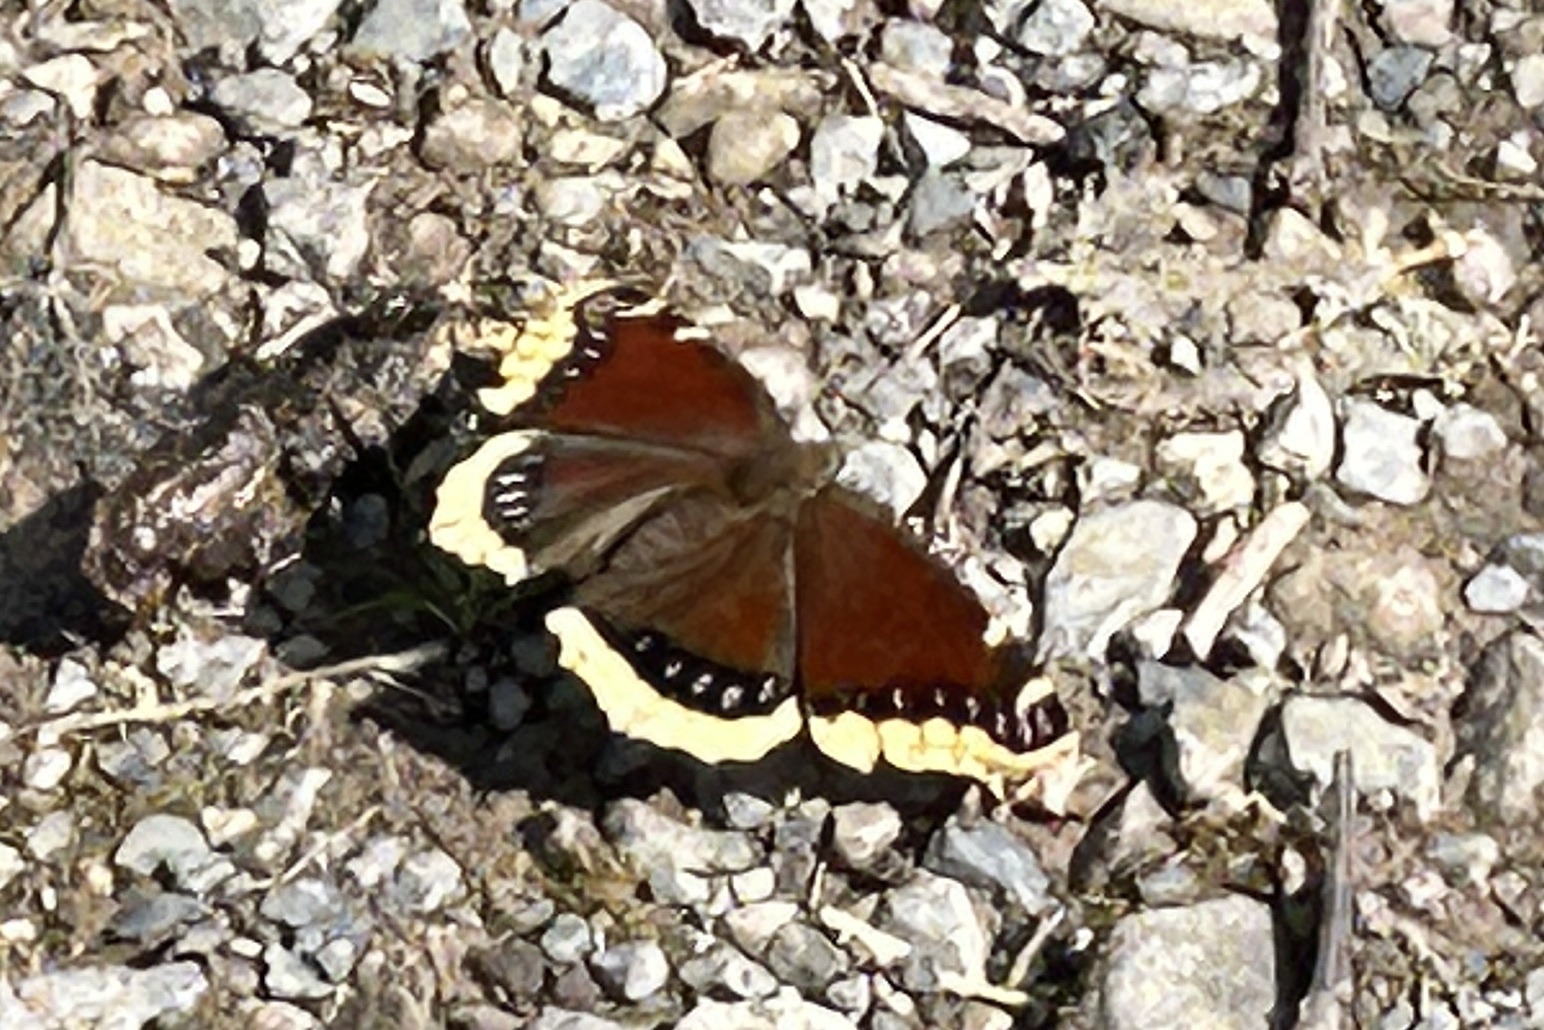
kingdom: Animalia
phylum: Arthropoda
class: Insecta
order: Lepidoptera
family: Nymphalidae
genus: Nymphalis
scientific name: Nymphalis antiopa
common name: Camberwell beauty
